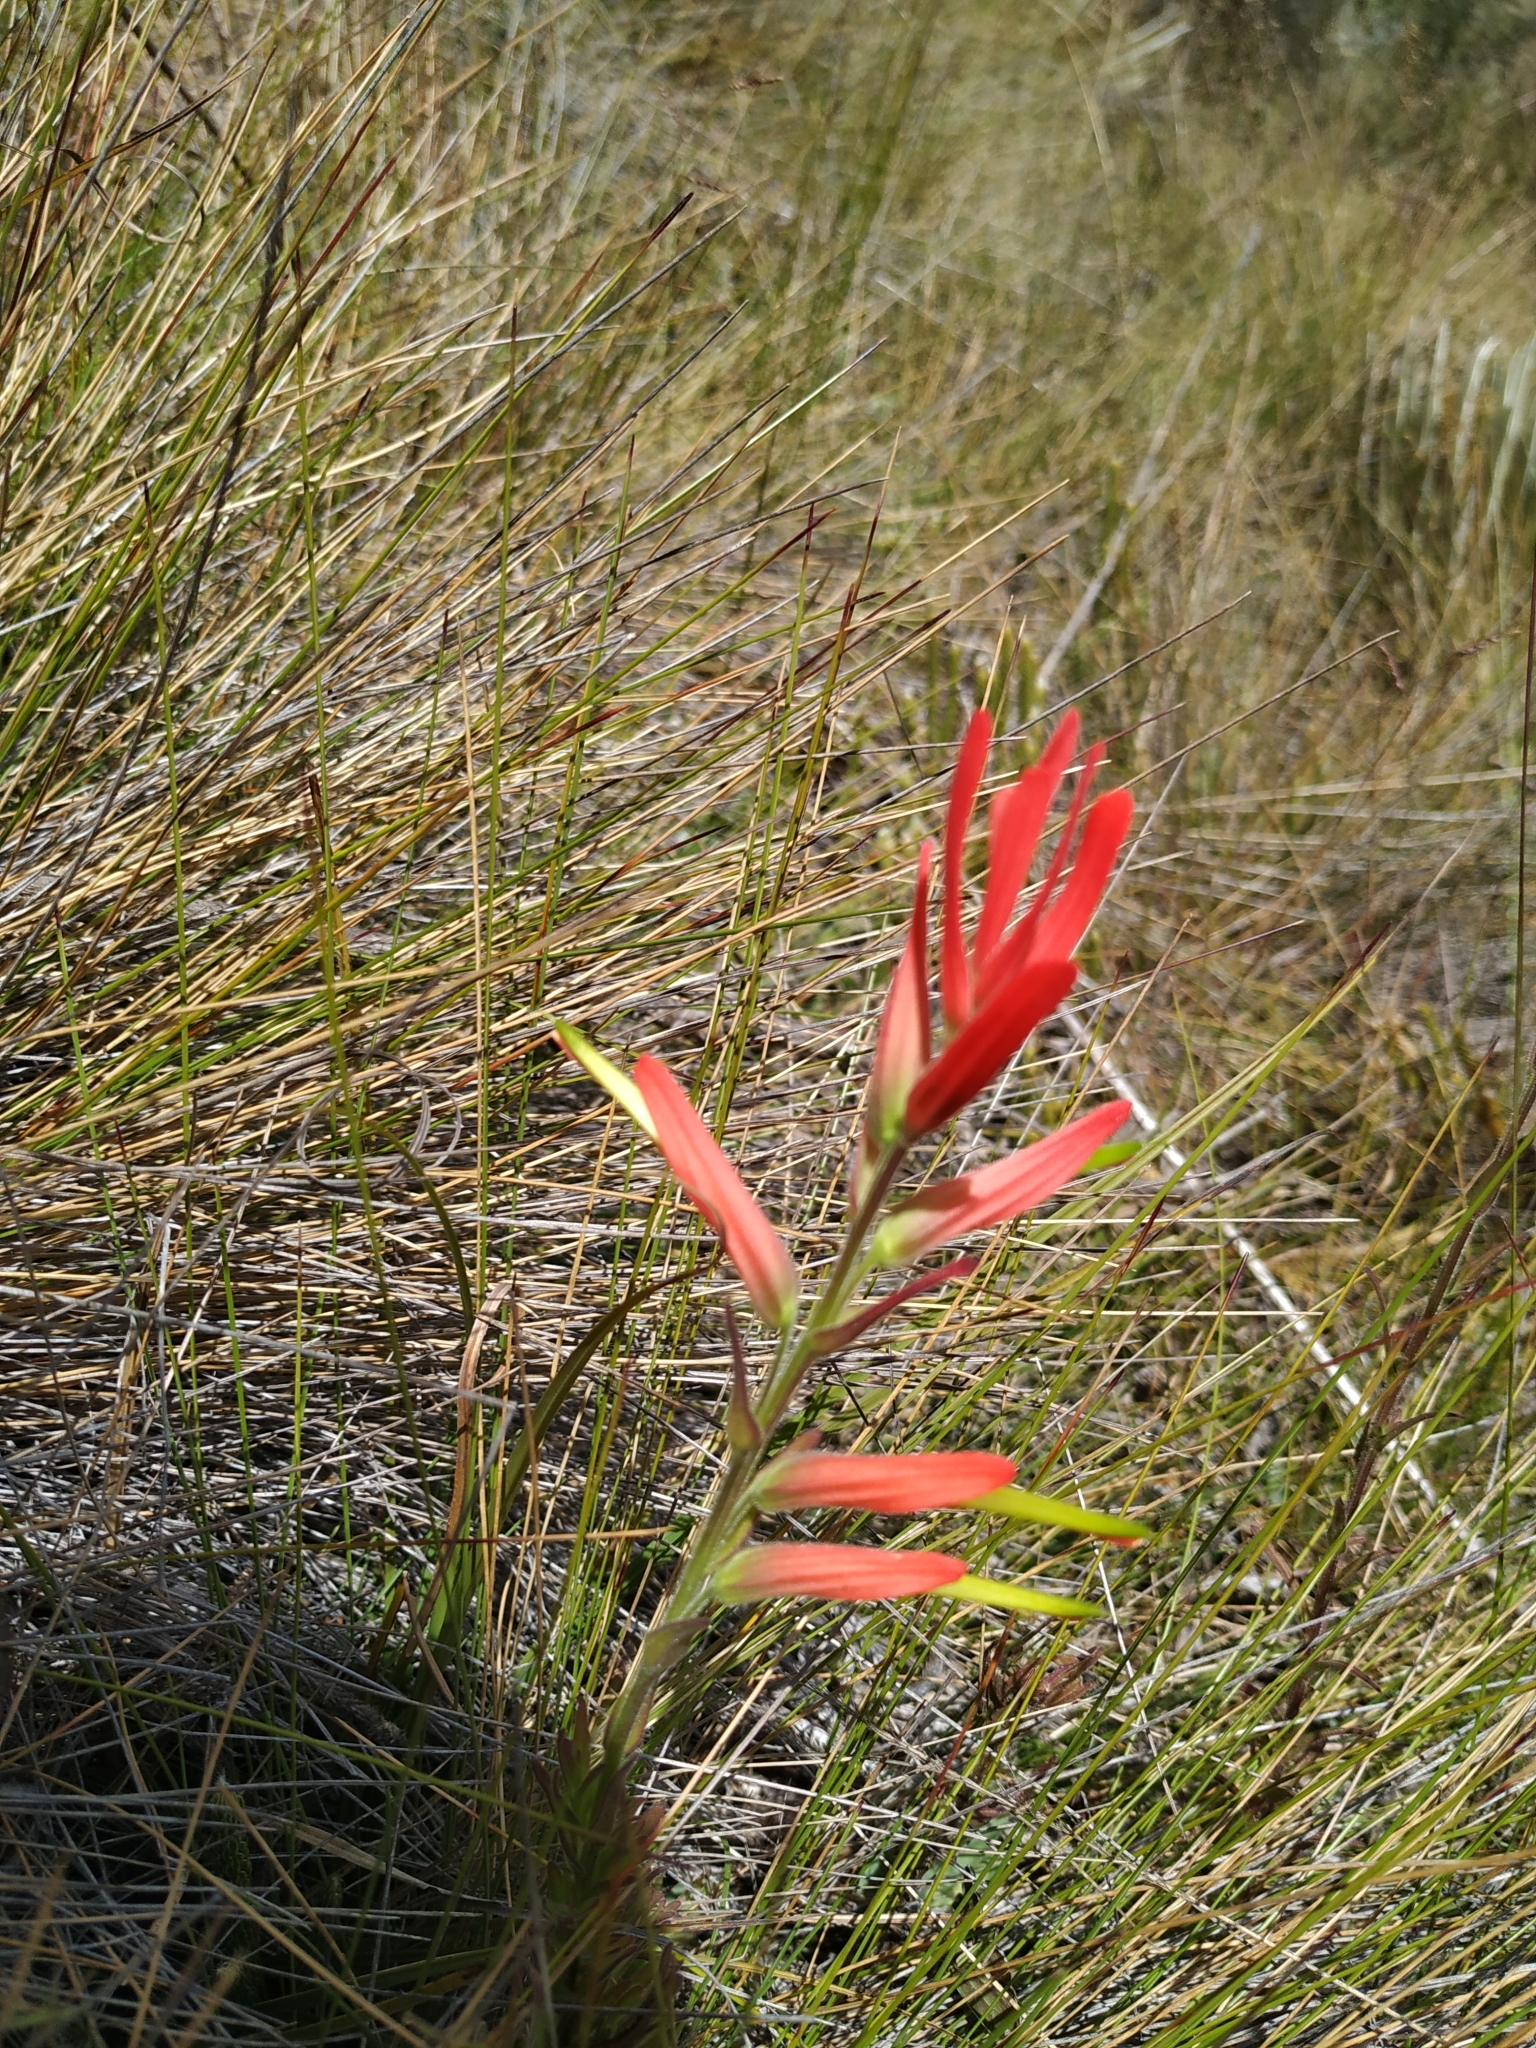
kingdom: Plantae
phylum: Tracheophyta
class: Magnoliopsida
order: Lamiales
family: Orobanchaceae
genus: Castilleja
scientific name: Castilleja integrifolia
